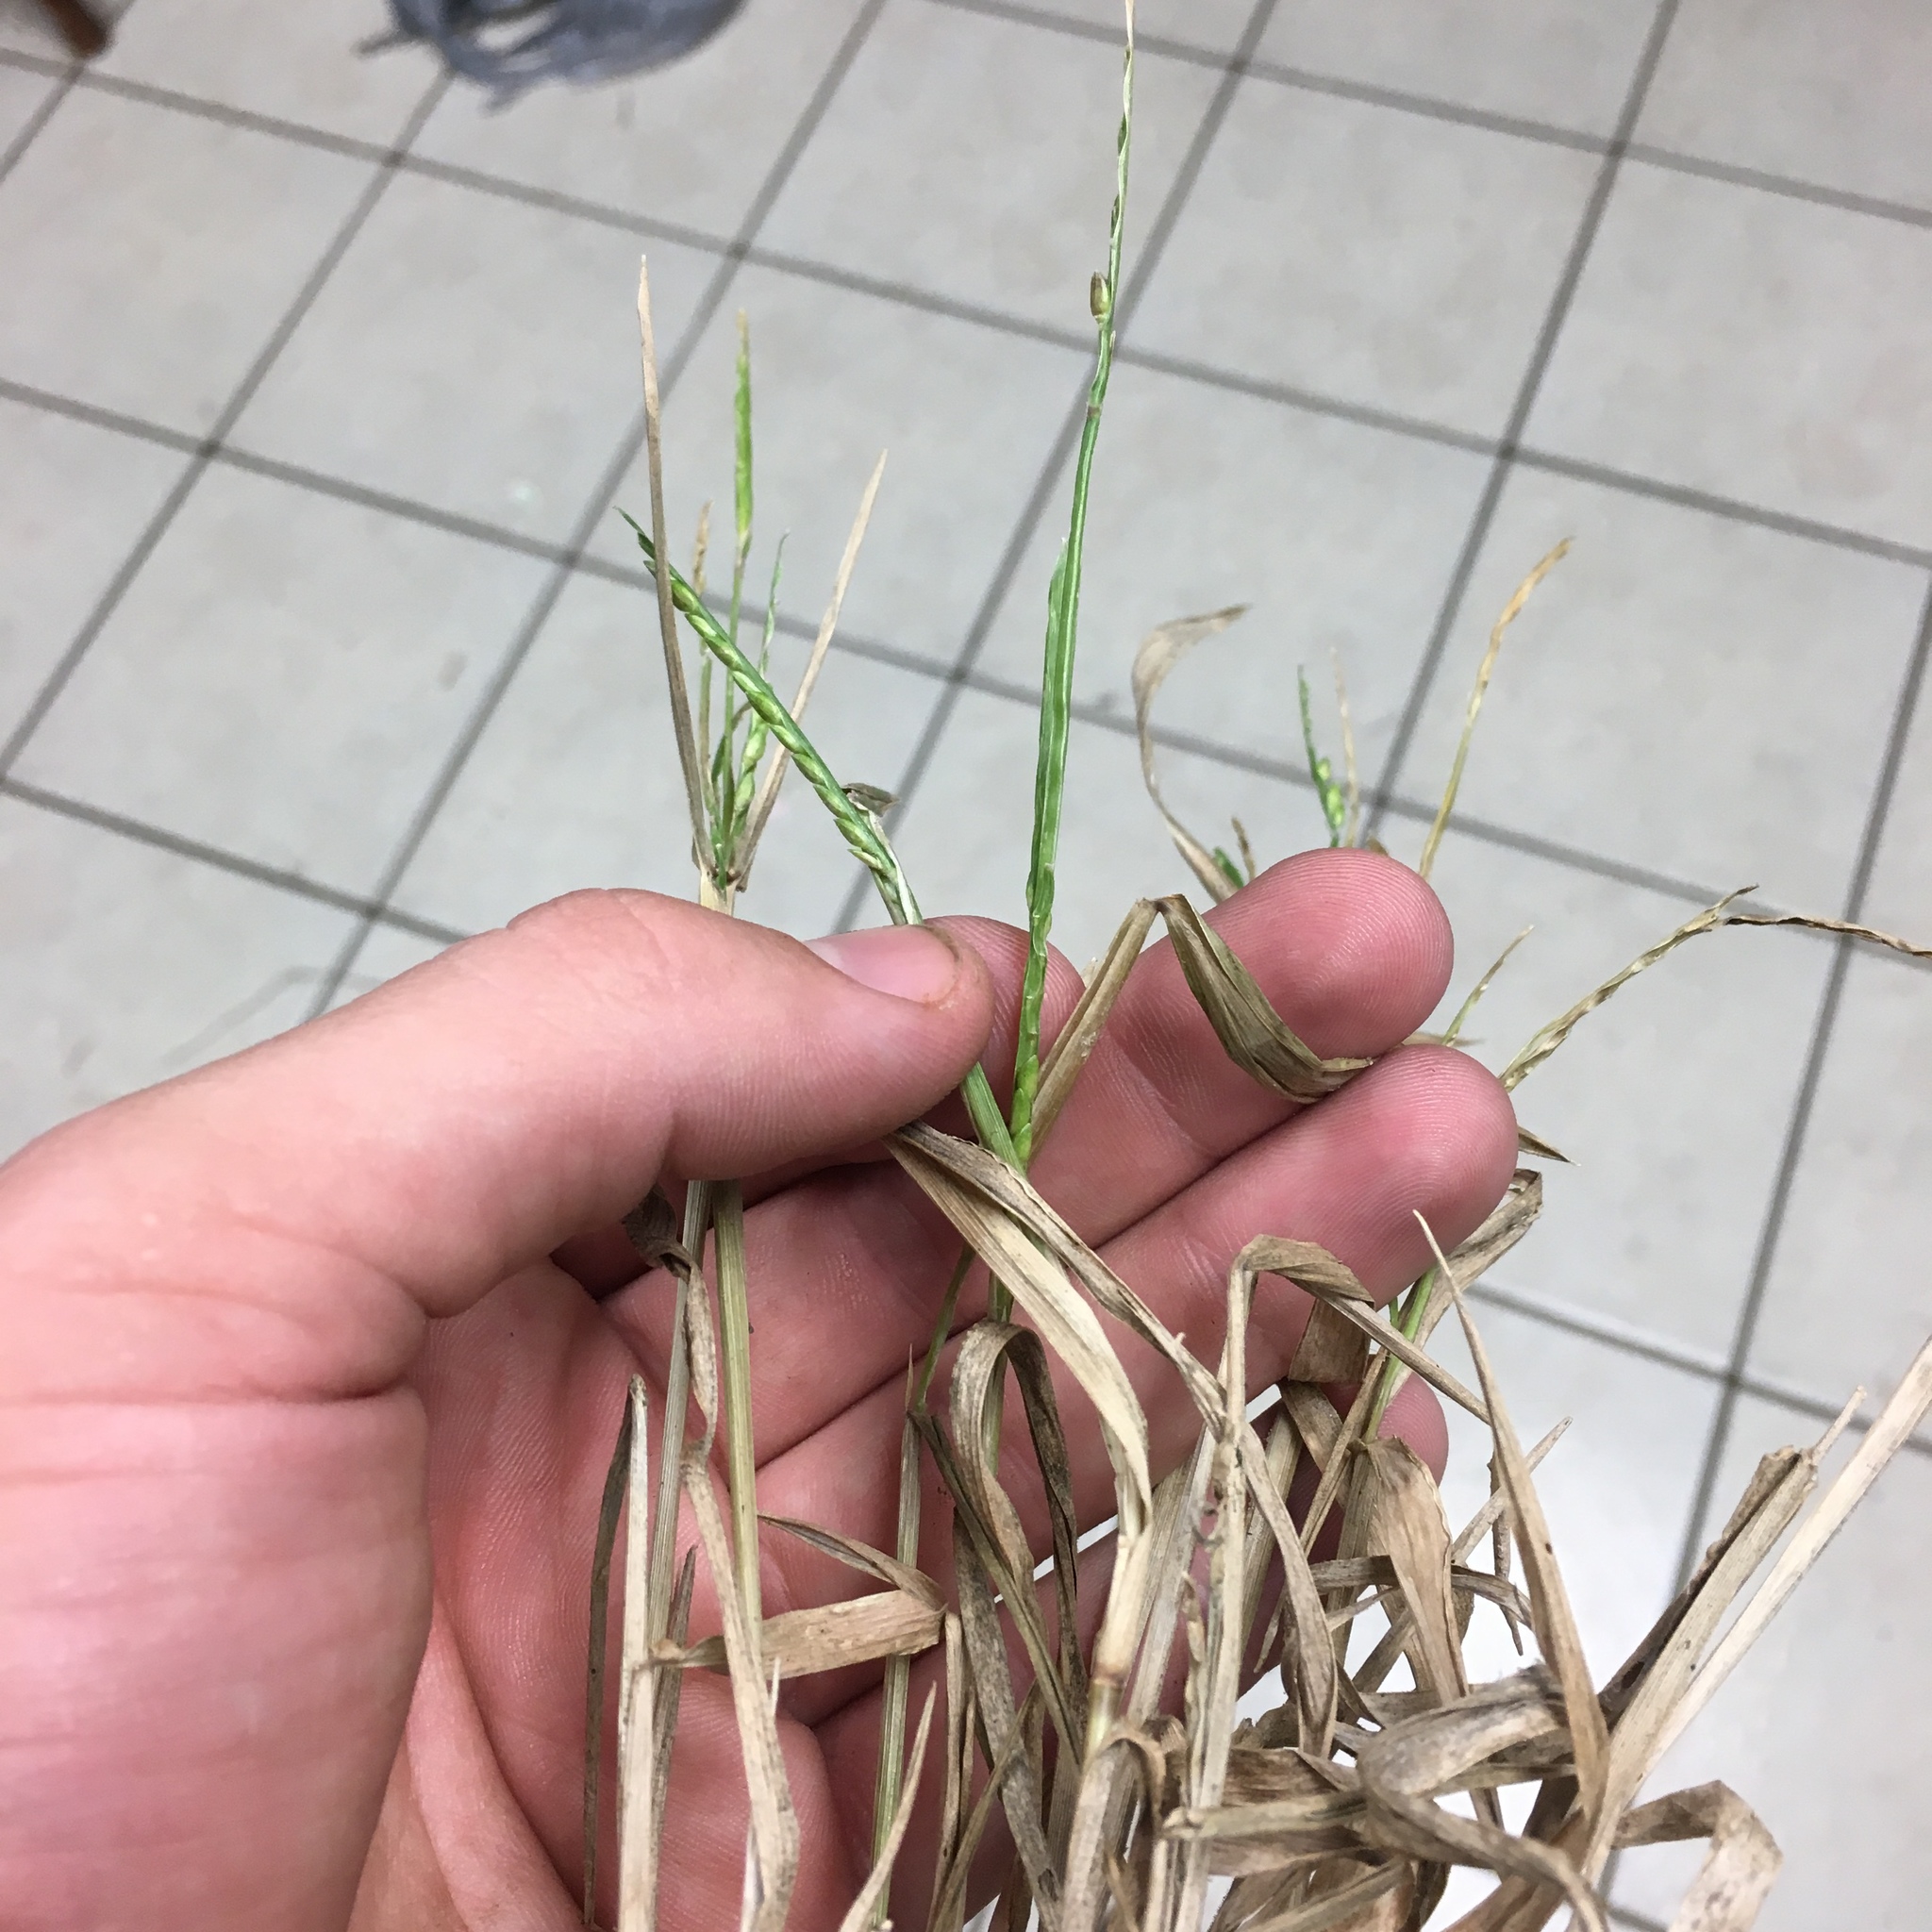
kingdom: Plantae
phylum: Tracheophyta
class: Liliopsida
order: Poales
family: Poaceae
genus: Urochloa
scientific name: Urochloa platyphylla
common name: White para grass
